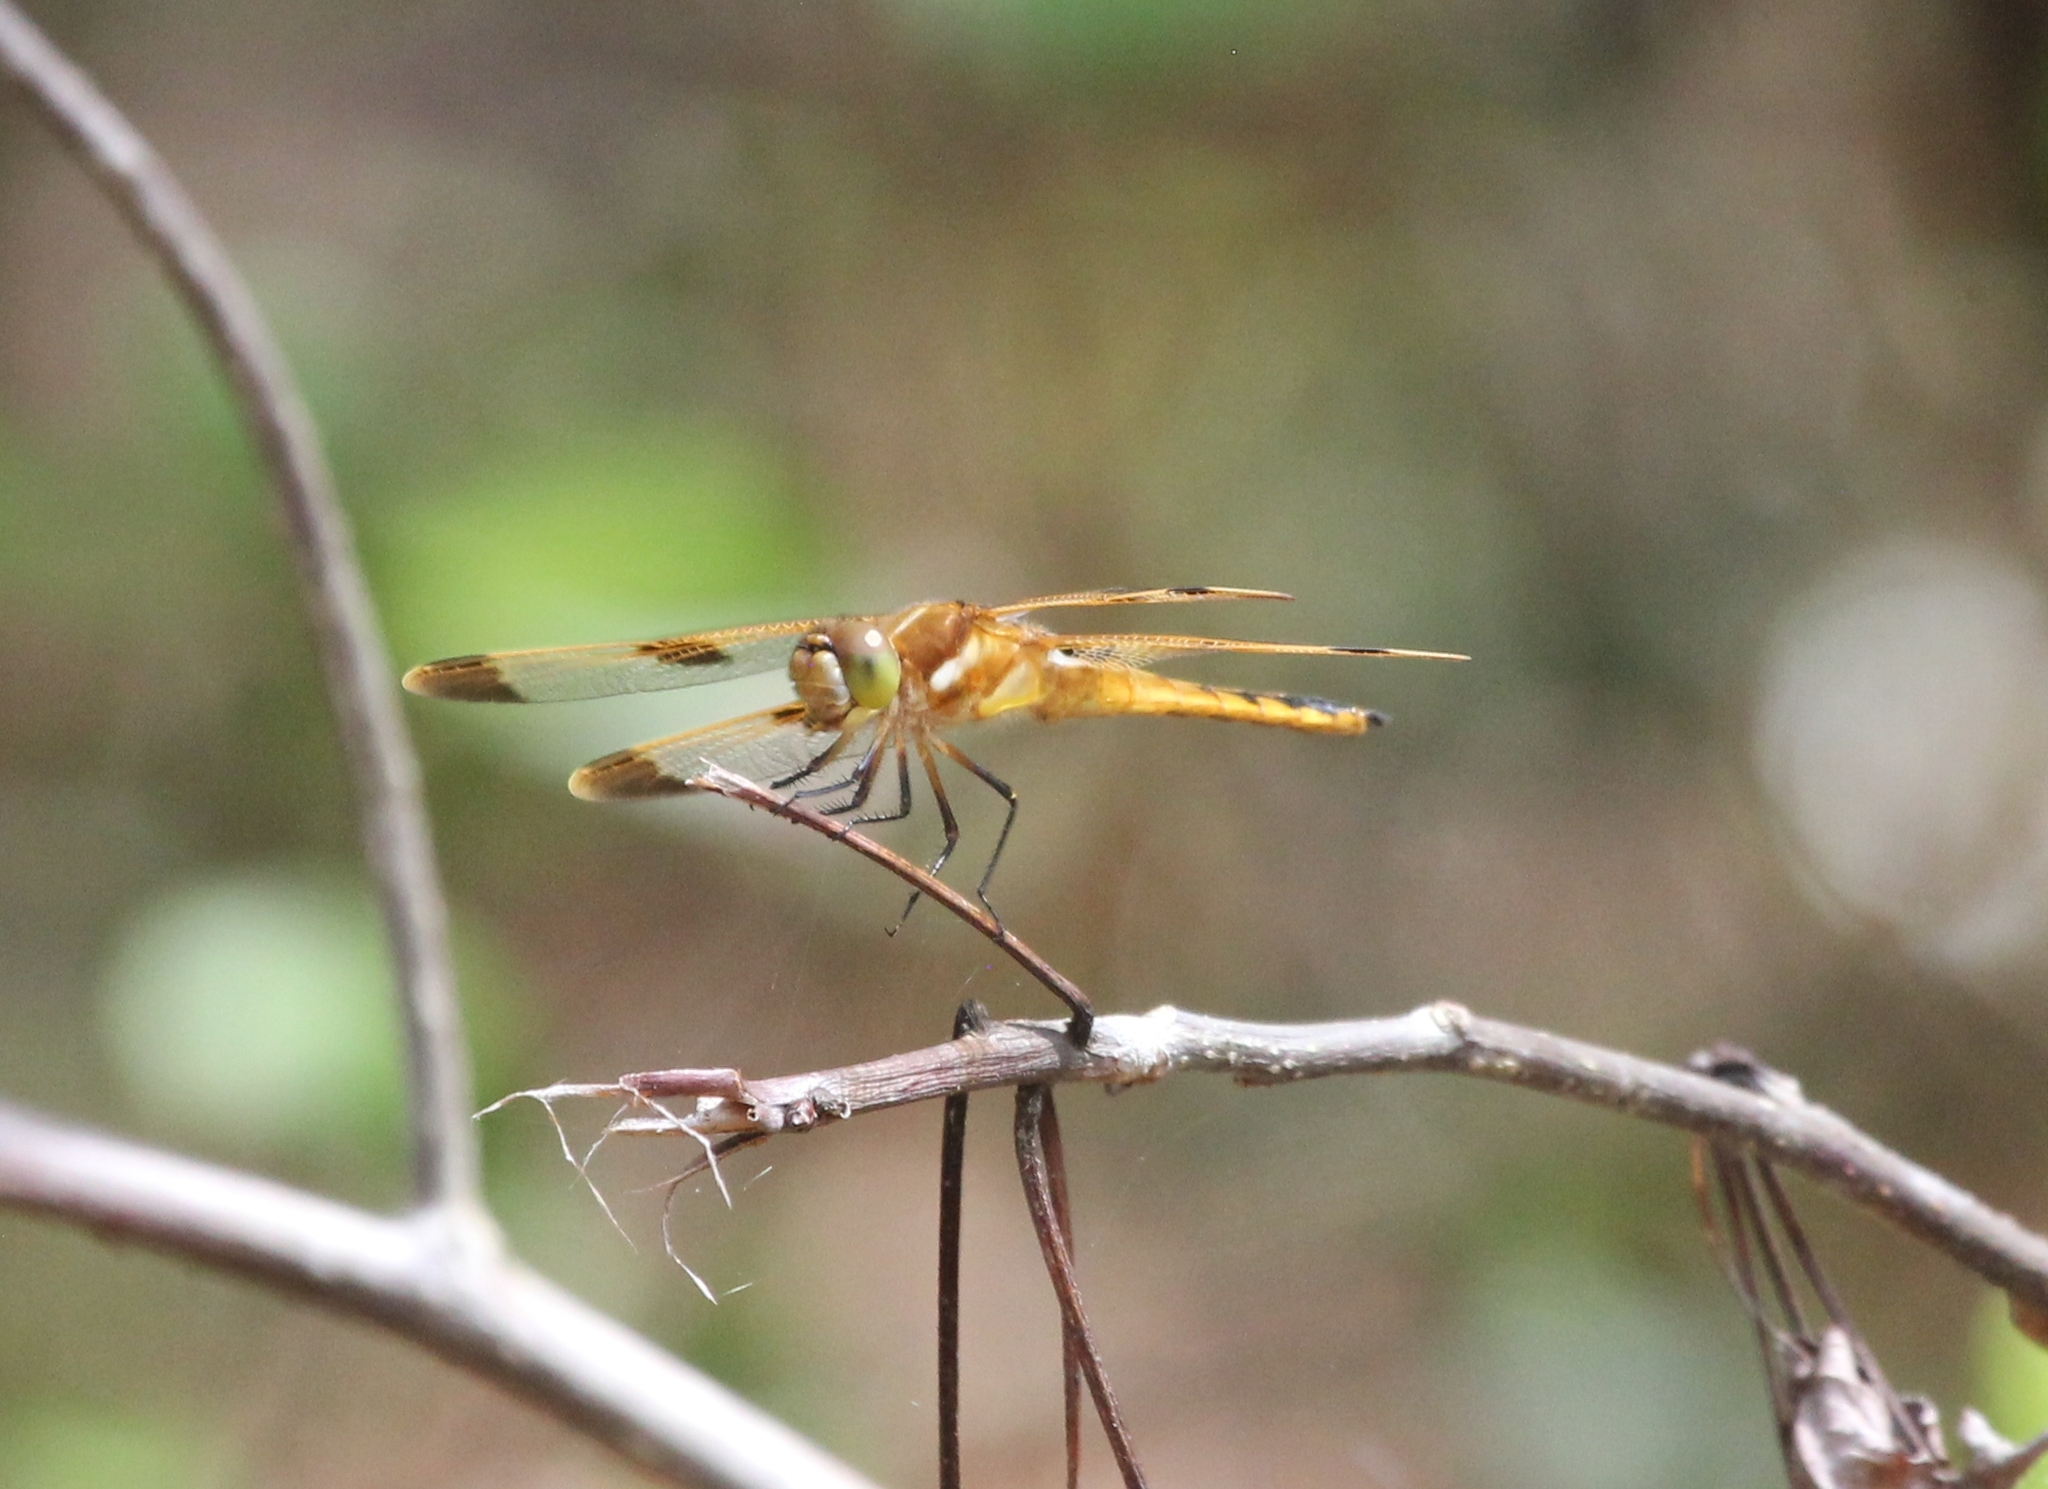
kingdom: Animalia
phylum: Arthropoda
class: Insecta
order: Odonata
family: Libellulidae
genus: Libellula
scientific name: Libellula semifasciata
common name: Painted skimmer
